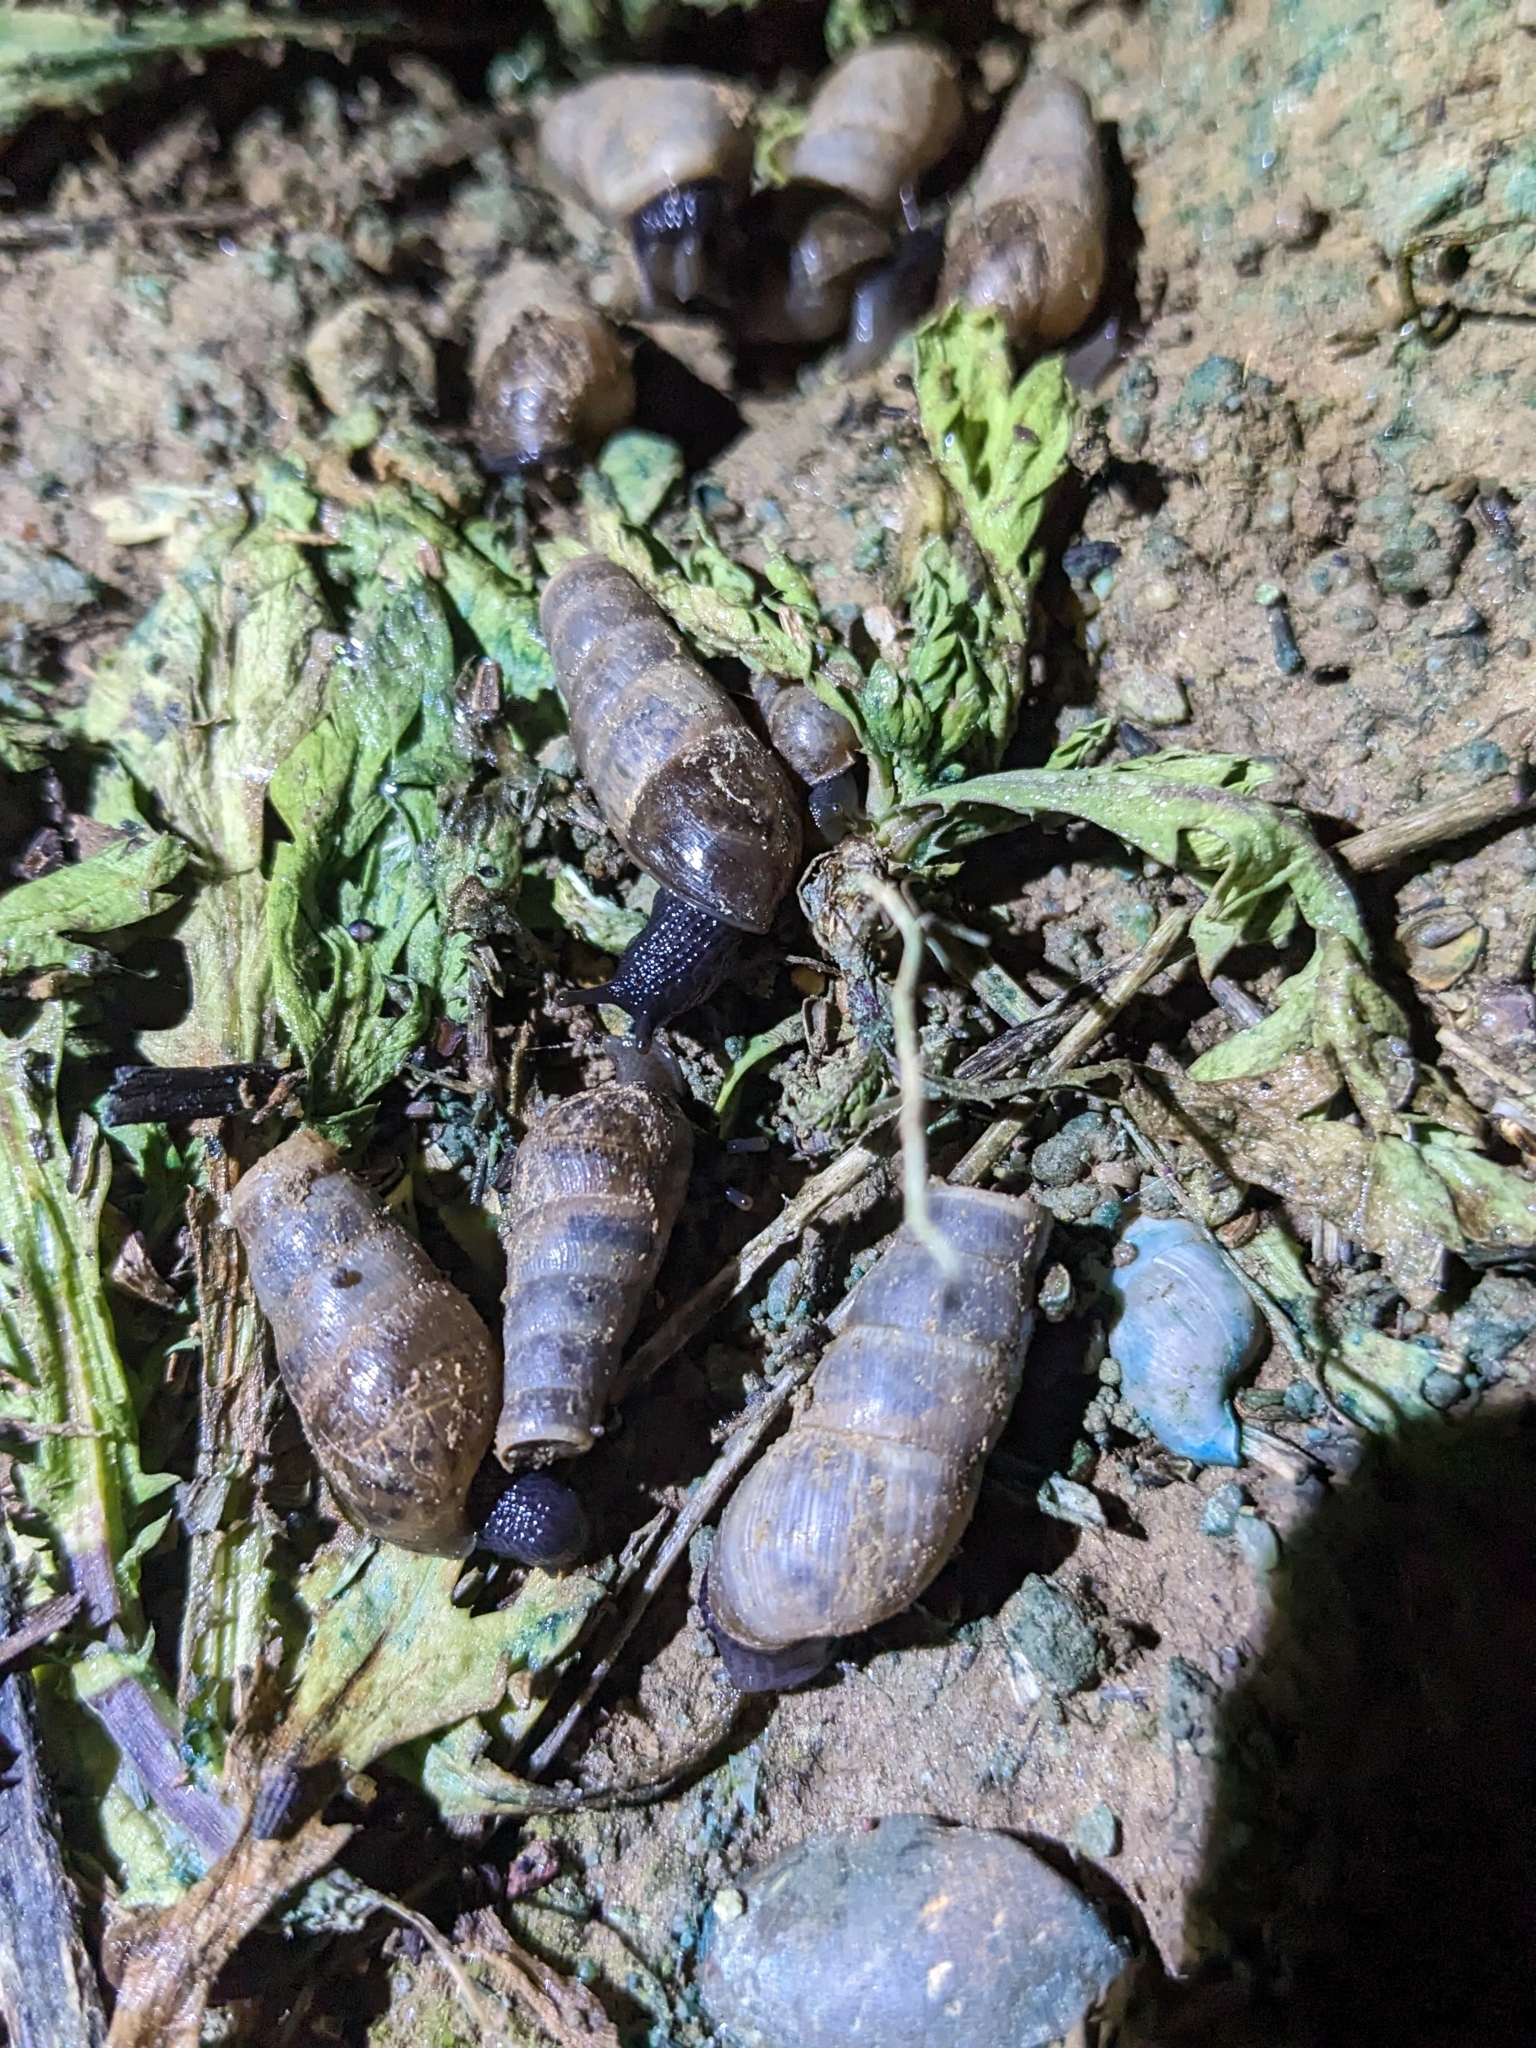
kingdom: Animalia
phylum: Mollusca
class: Gastropoda
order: Stylommatophora
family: Achatinidae
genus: Rumina
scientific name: Rumina decollata
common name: Decollate snail
